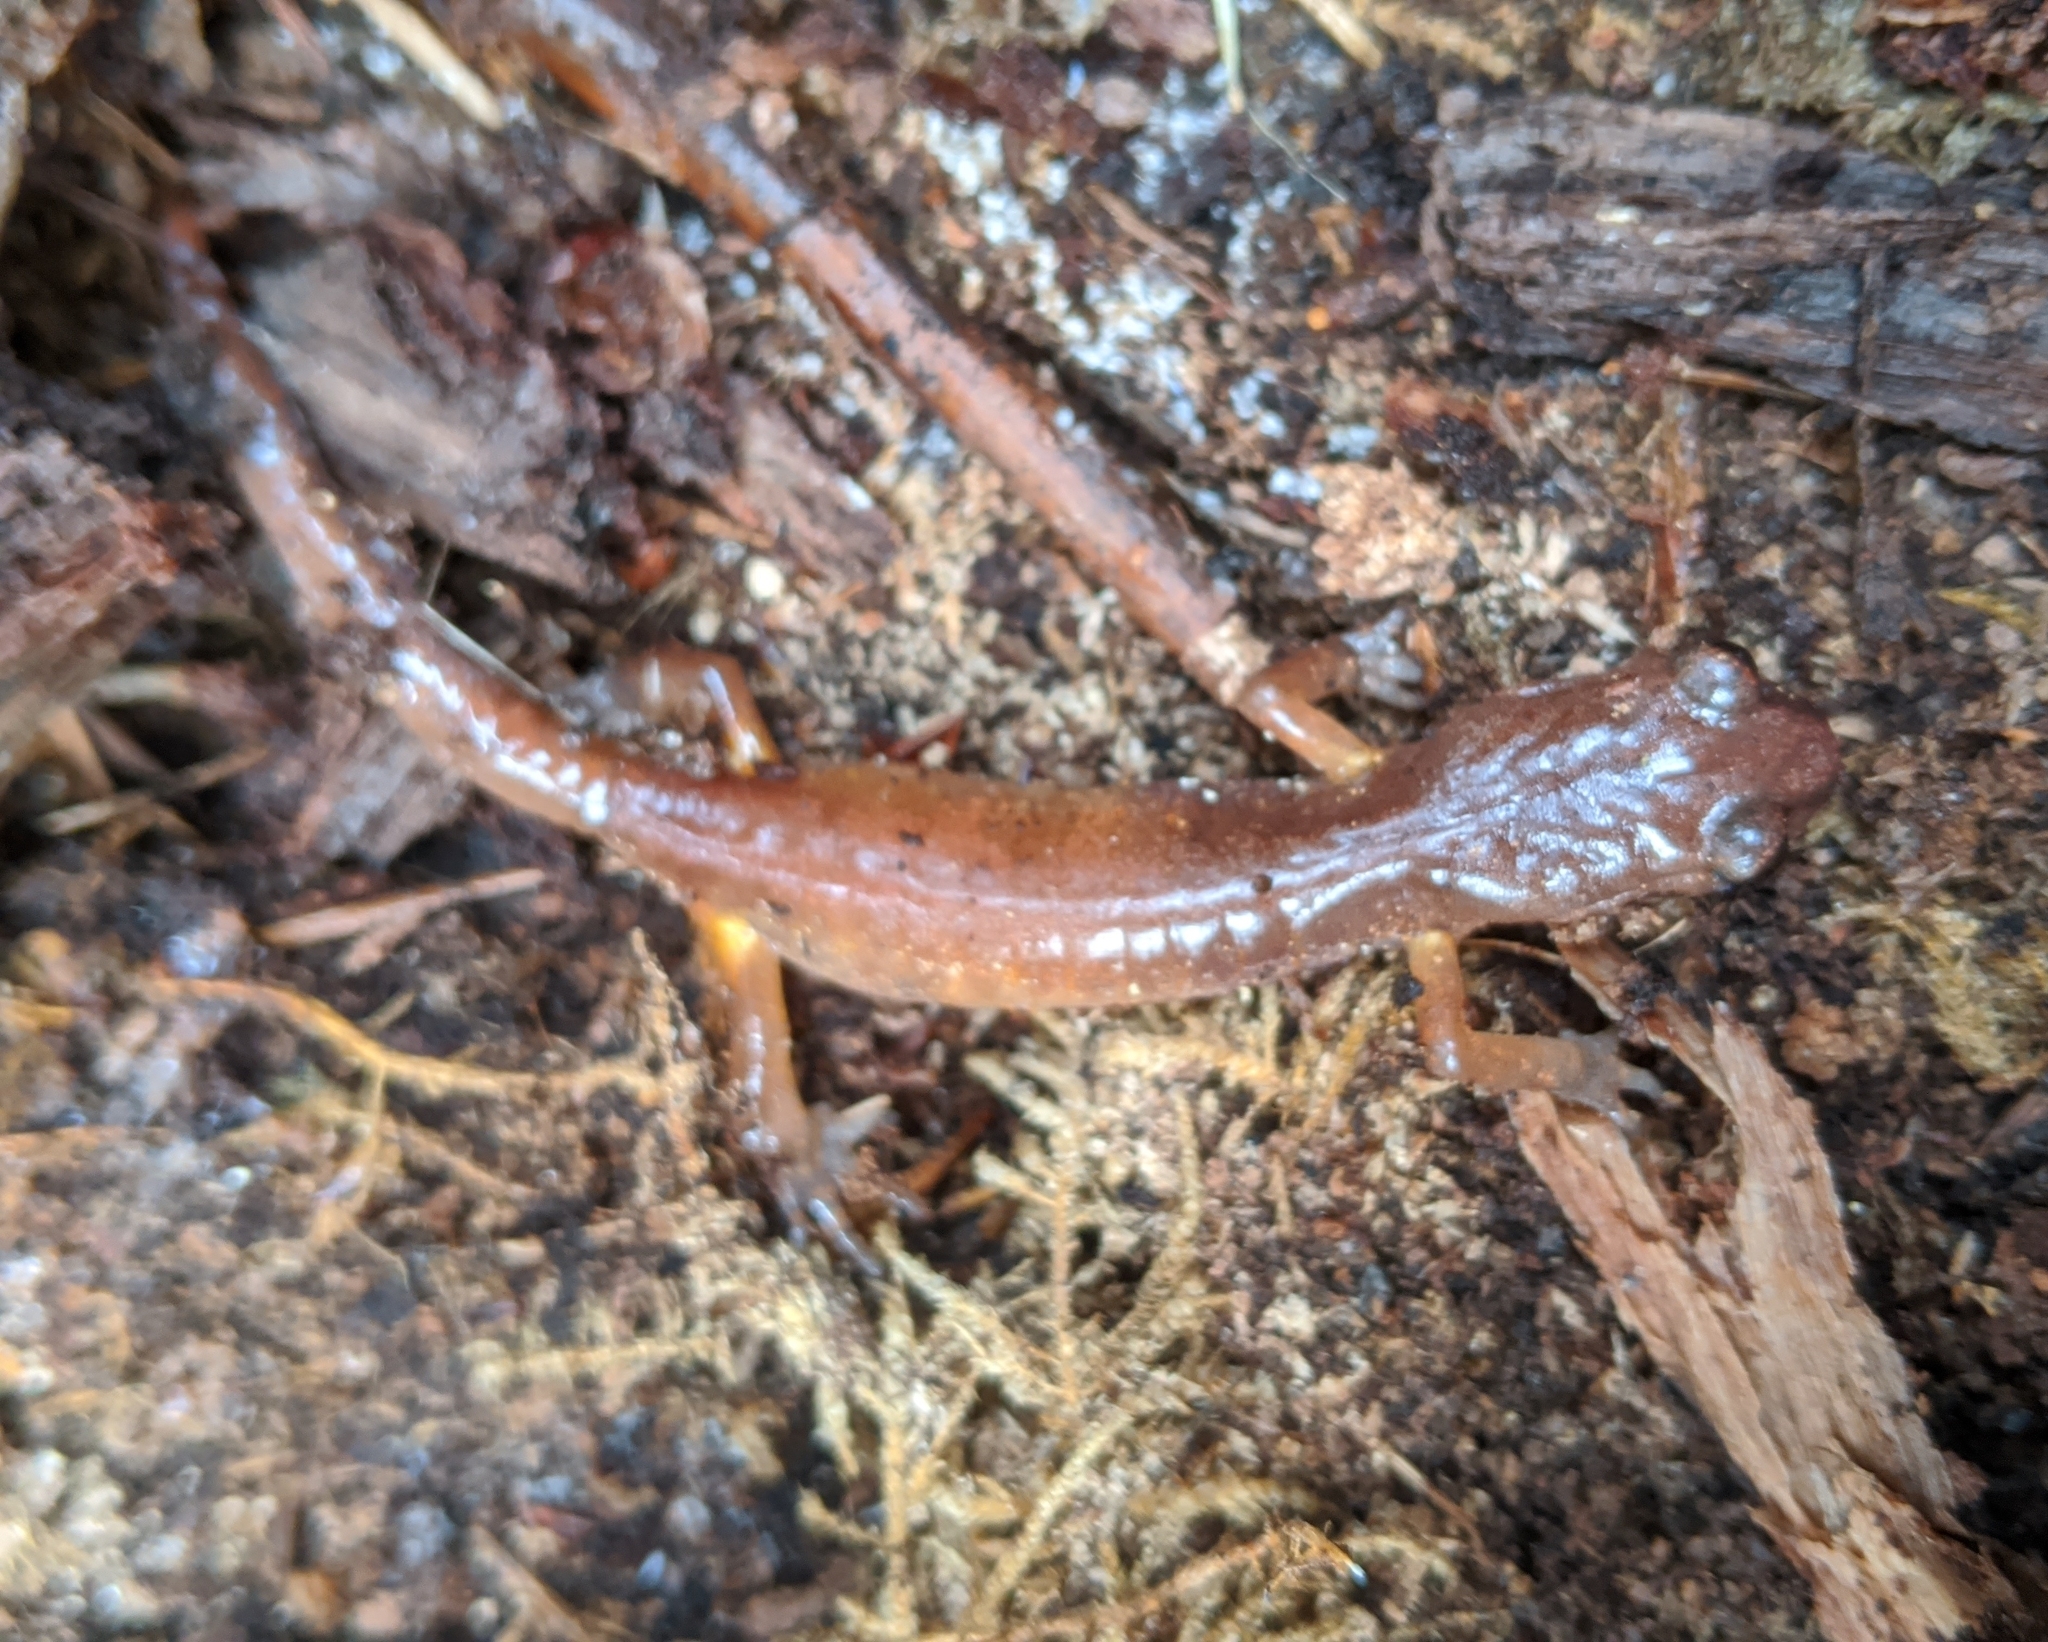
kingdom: Animalia
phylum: Chordata
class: Amphibia
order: Caudata
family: Plethodontidae
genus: Ensatina
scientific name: Ensatina eschscholtzii
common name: Ensatina
